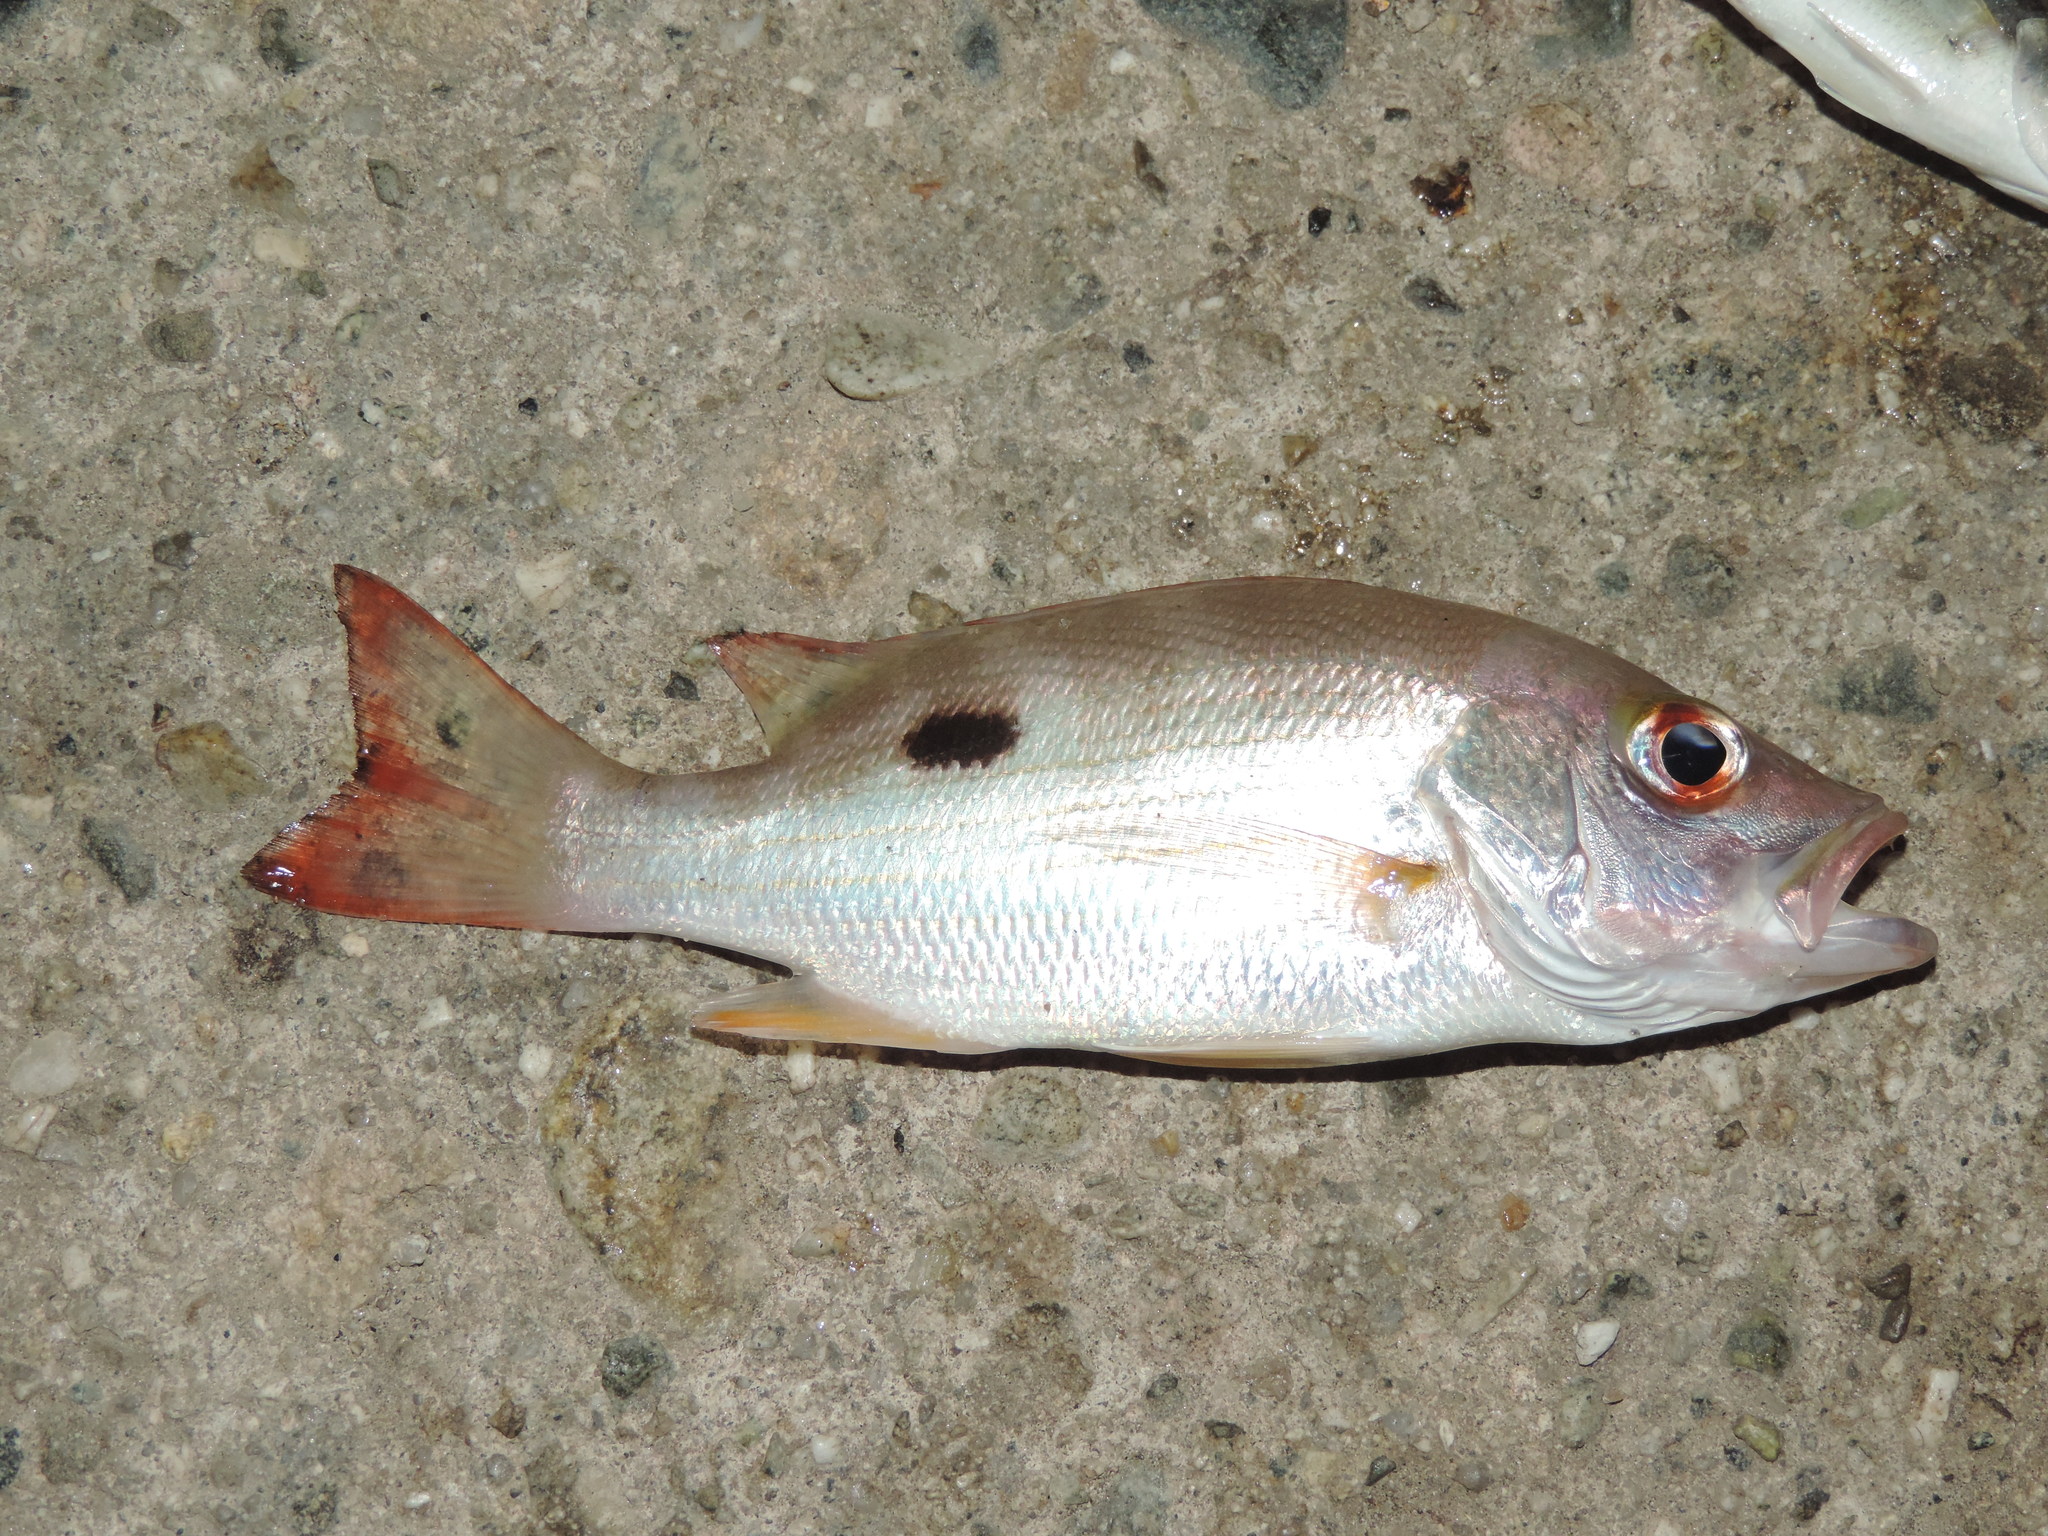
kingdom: Animalia
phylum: Chordata
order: Perciformes
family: Lutjanidae
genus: Lutjanus
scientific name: Lutjanus mahogoni
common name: Spot snapper
